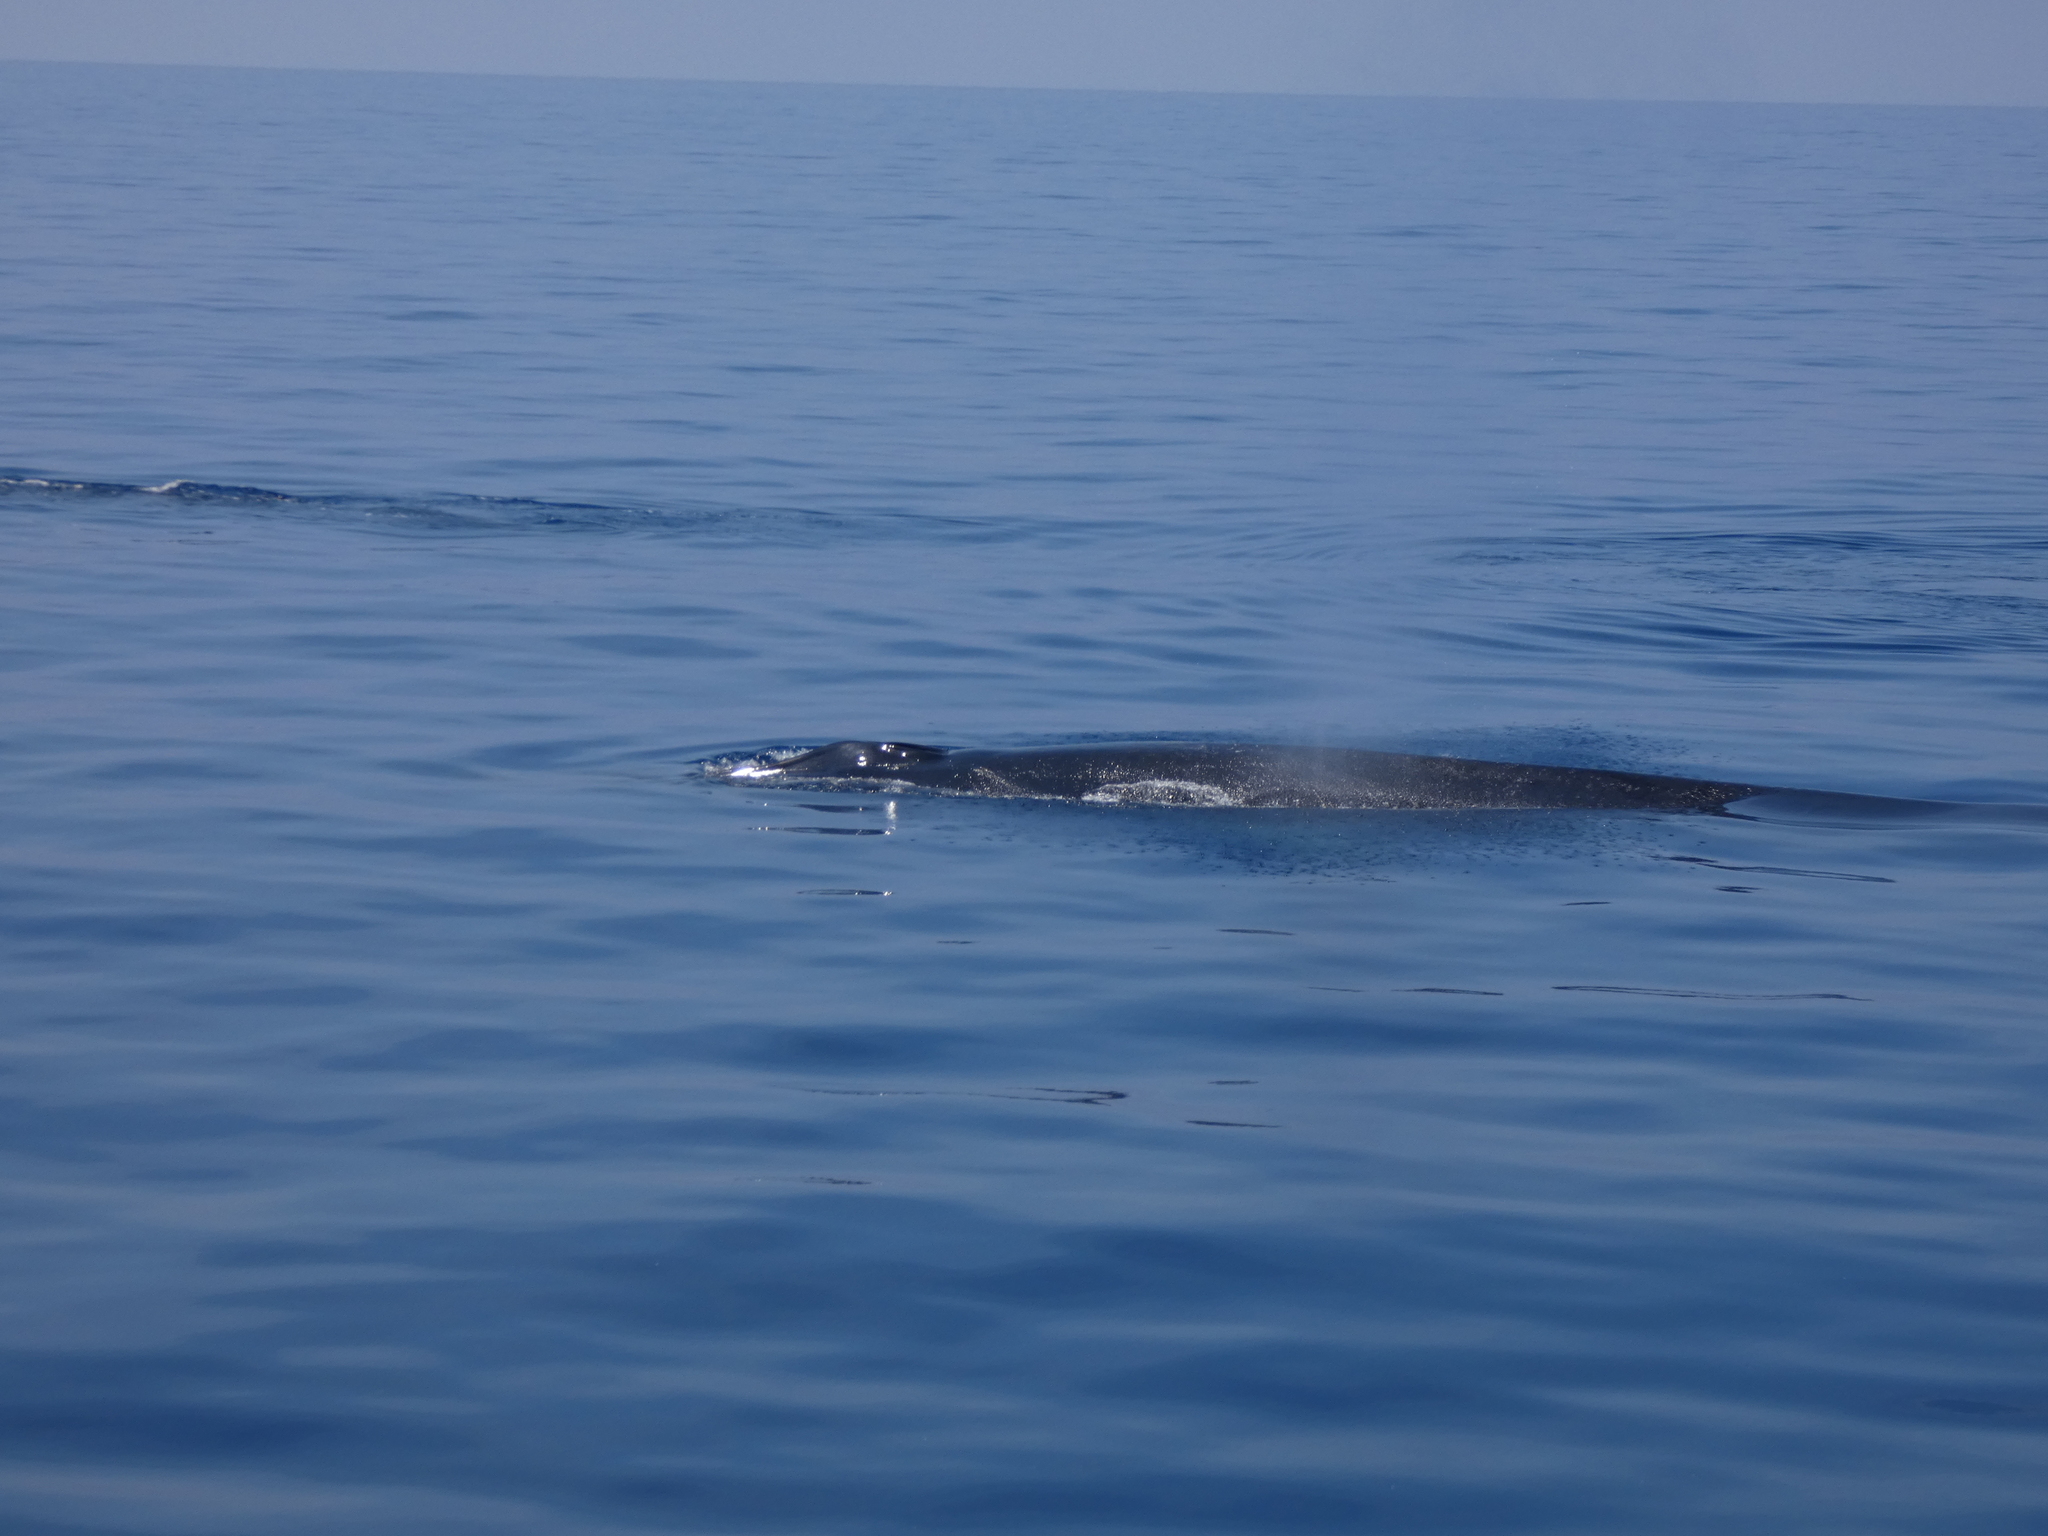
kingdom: Animalia
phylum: Chordata
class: Mammalia
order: Cetacea
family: Balaenopteridae
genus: Balaenoptera
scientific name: Balaenoptera physalus
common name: Fin whale
